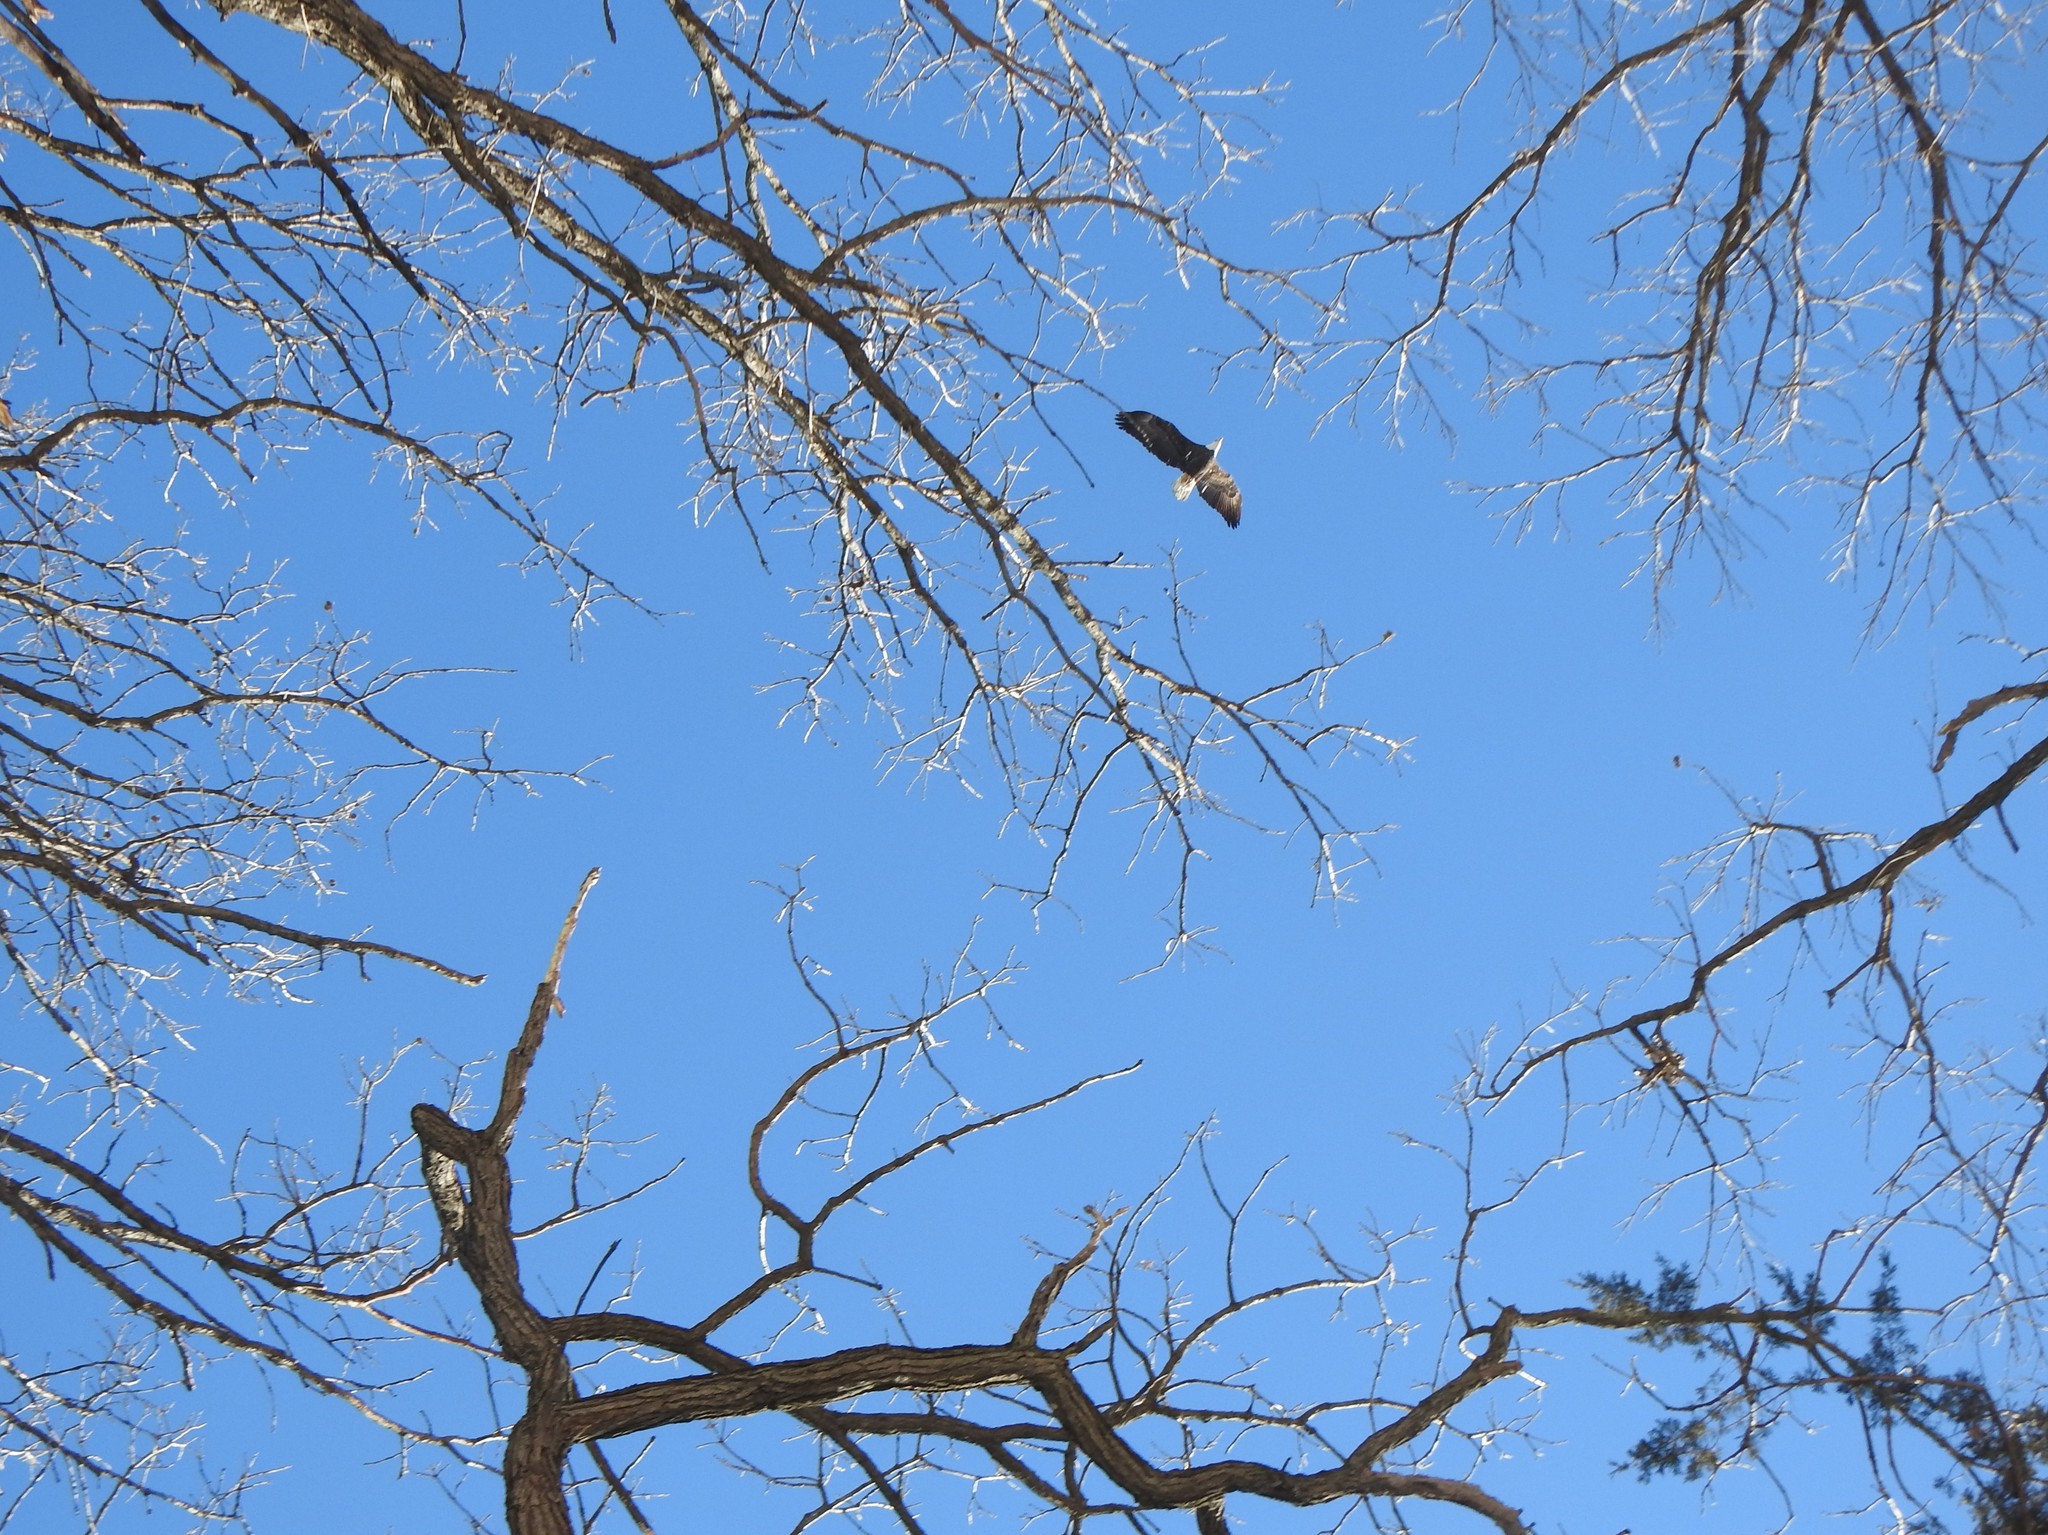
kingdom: Animalia
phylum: Chordata
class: Aves
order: Accipitriformes
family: Accipitridae
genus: Haliaeetus
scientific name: Haliaeetus leucocephalus
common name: Bald eagle
